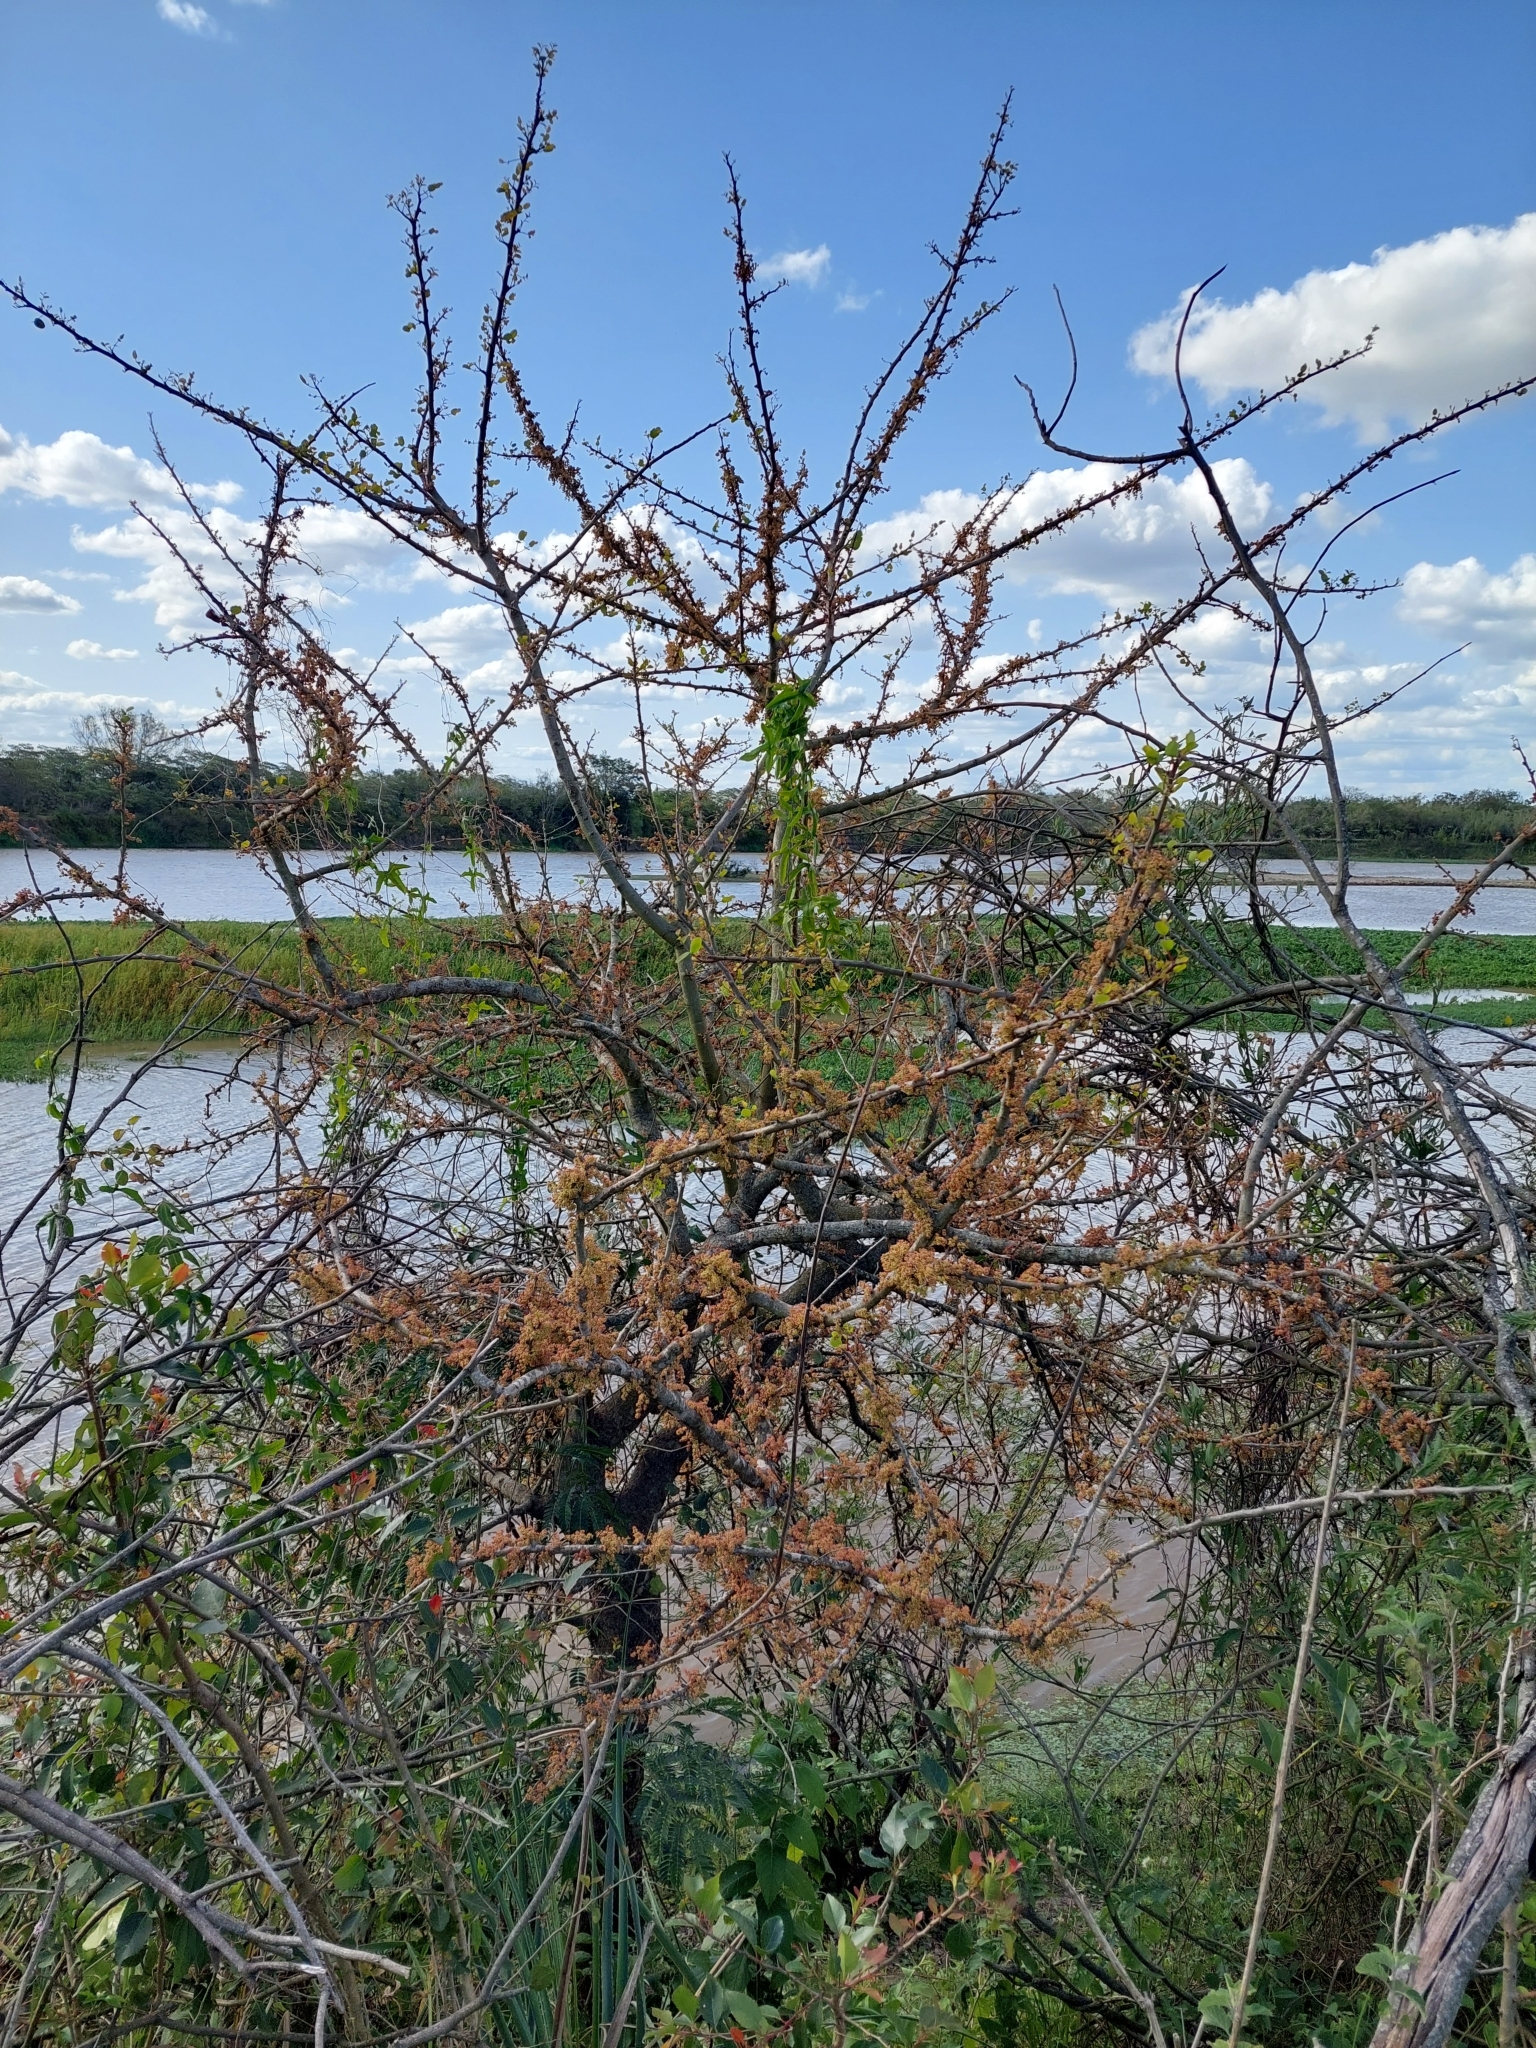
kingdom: Plantae
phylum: Tracheophyta
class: Magnoliopsida
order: Malpighiales
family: Phyllanthaceae
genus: Phyllanthus
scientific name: Phyllanthus chacoensis
